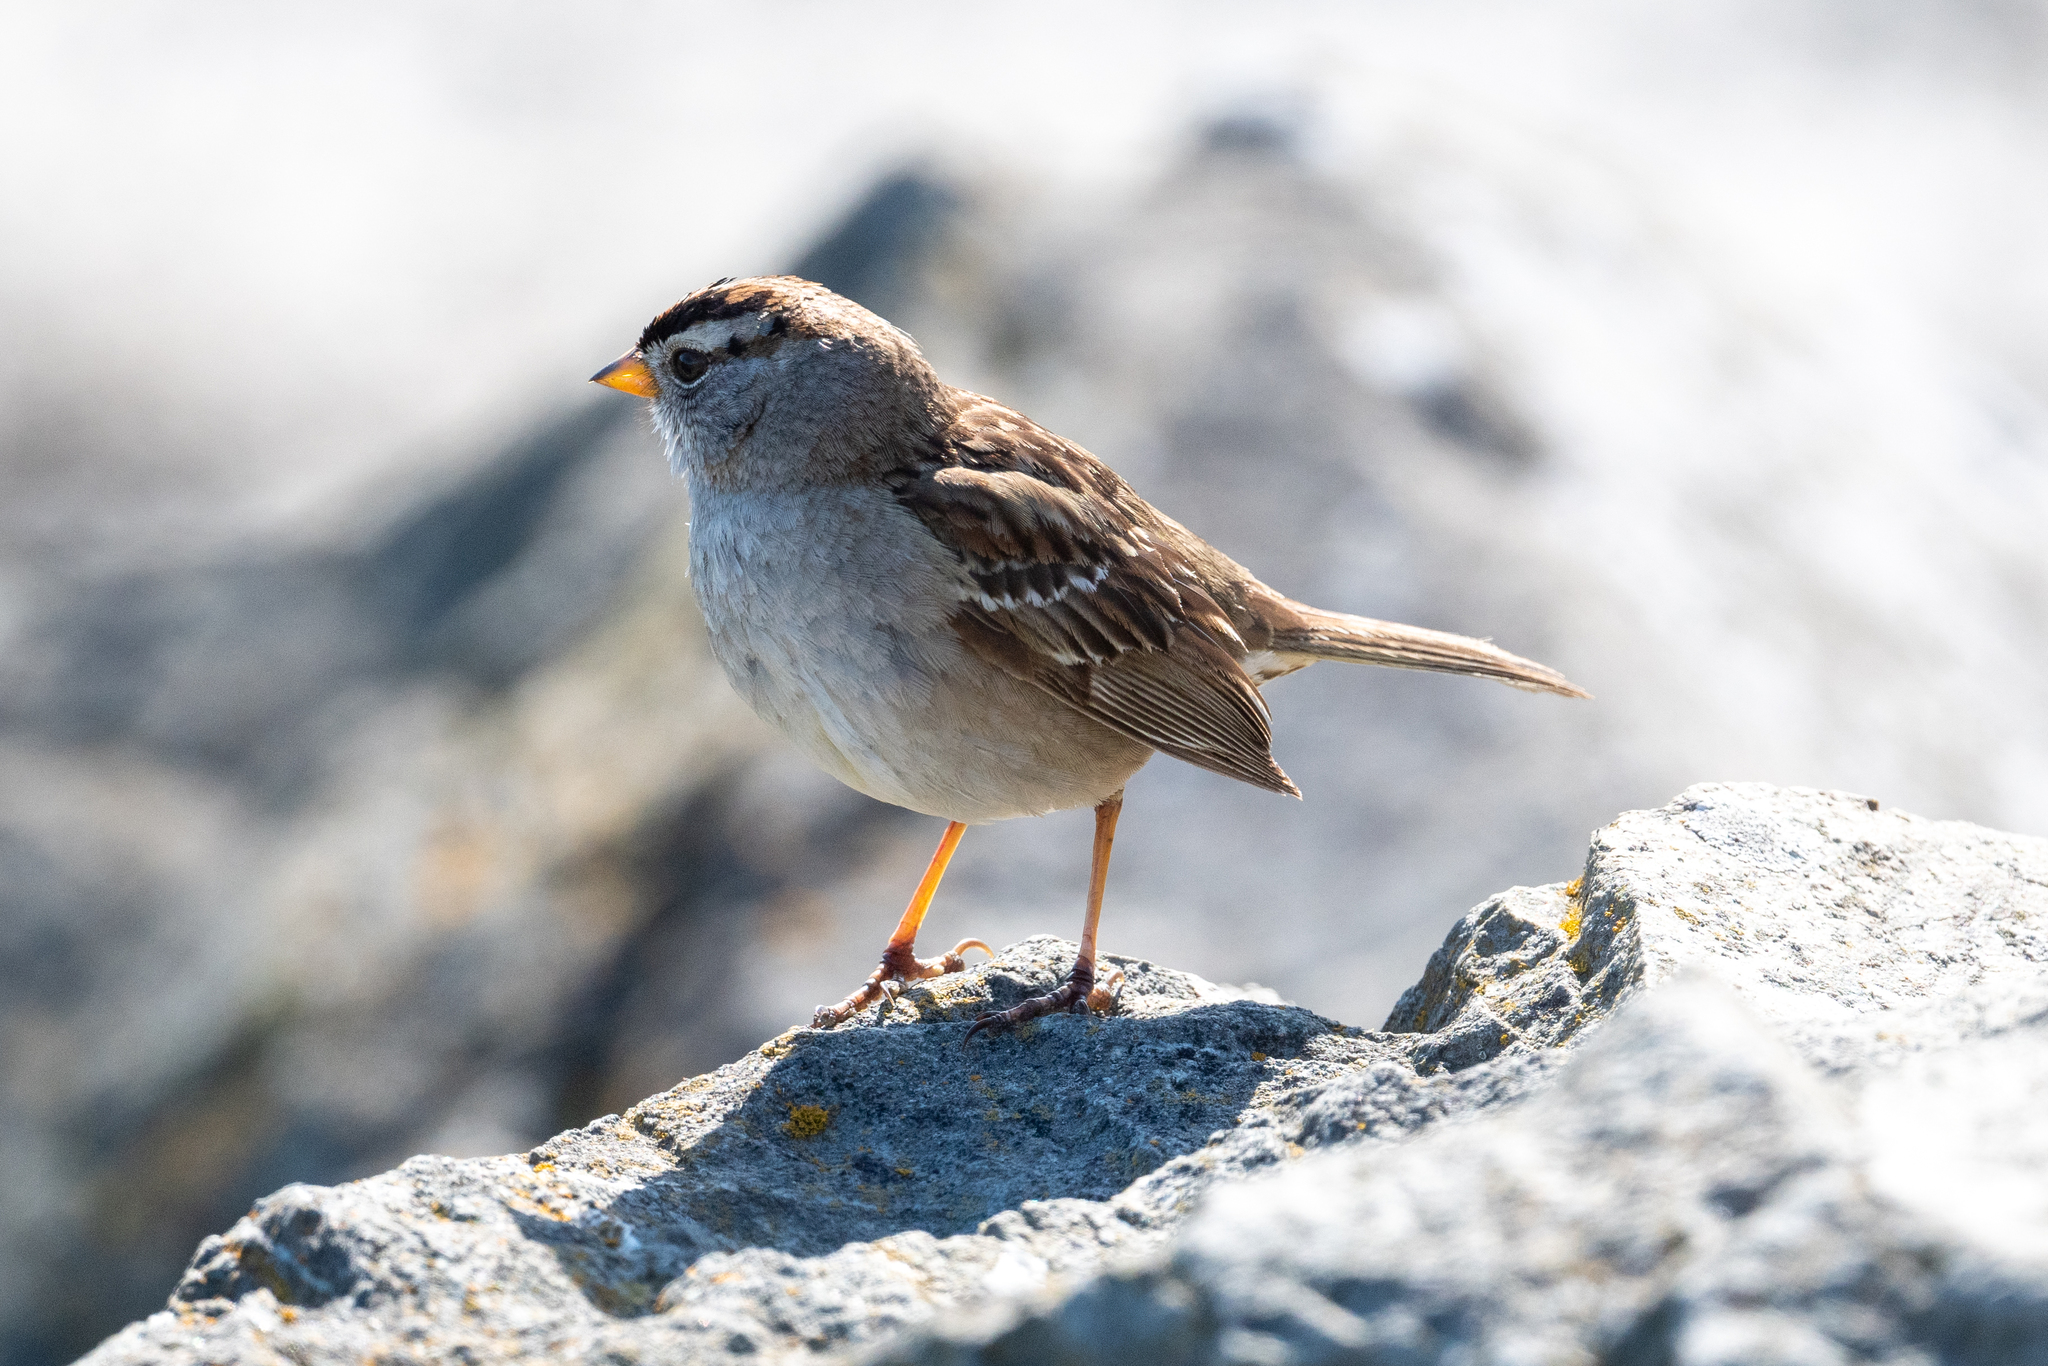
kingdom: Animalia
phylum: Chordata
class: Aves
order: Passeriformes
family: Passerellidae
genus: Zonotrichia
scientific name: Zonotrichia leucophrys
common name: White-crowned sparrow
